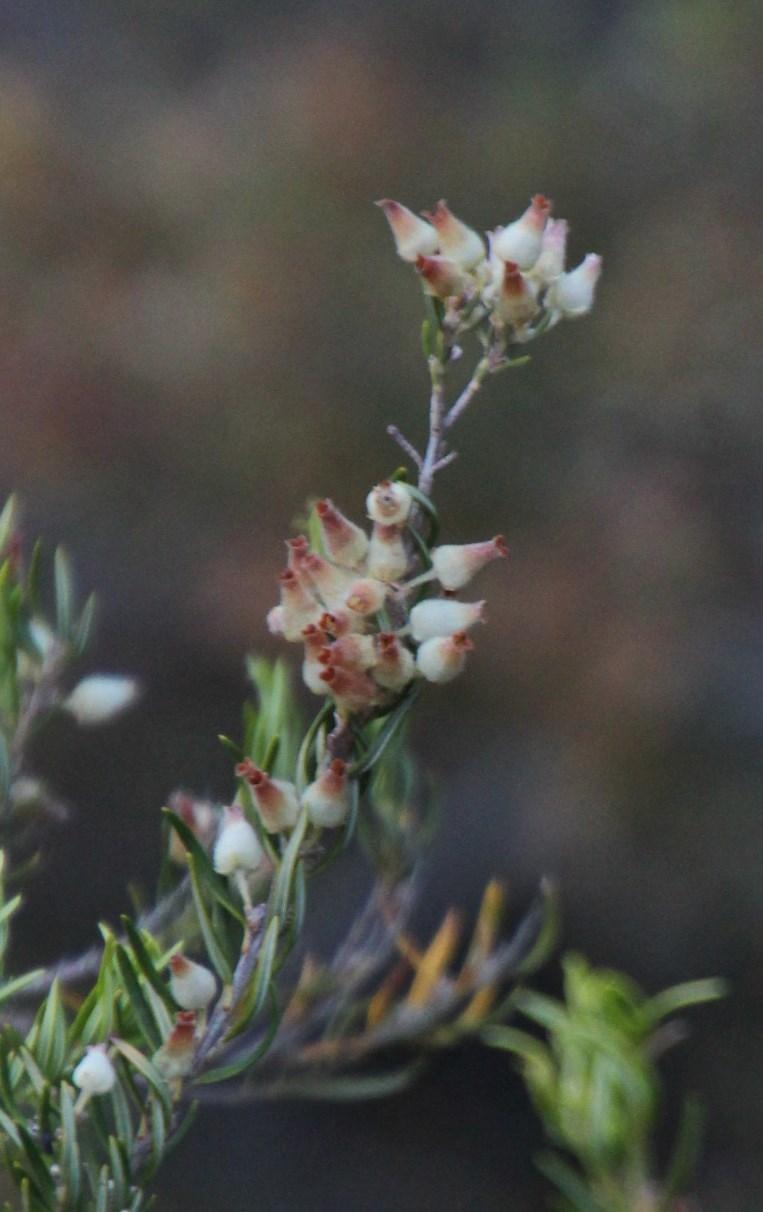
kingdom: Plantae
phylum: Tracheophyta
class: Magnoliopsida
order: Ericales
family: Ericaceae
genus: Erica
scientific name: Erica caffra
